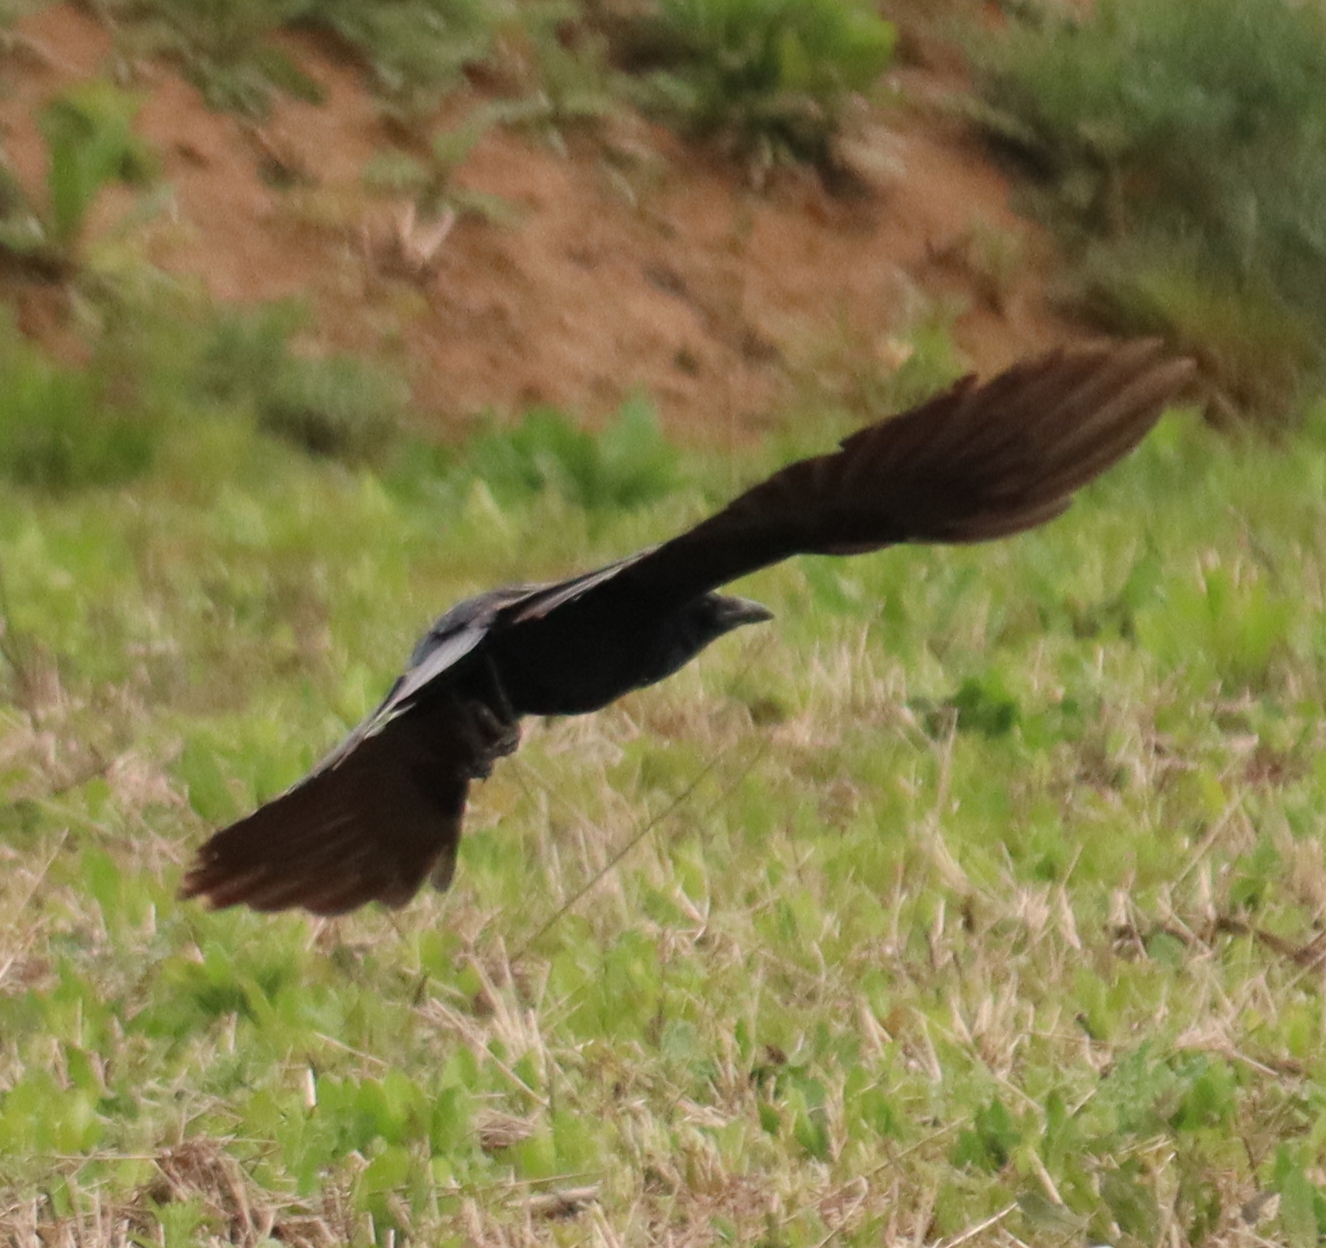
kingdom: Animalia
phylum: Chordata
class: Aves
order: Passeriformes
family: Corvidae
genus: Corvus
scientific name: Corvus corone
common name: Carrion crow
